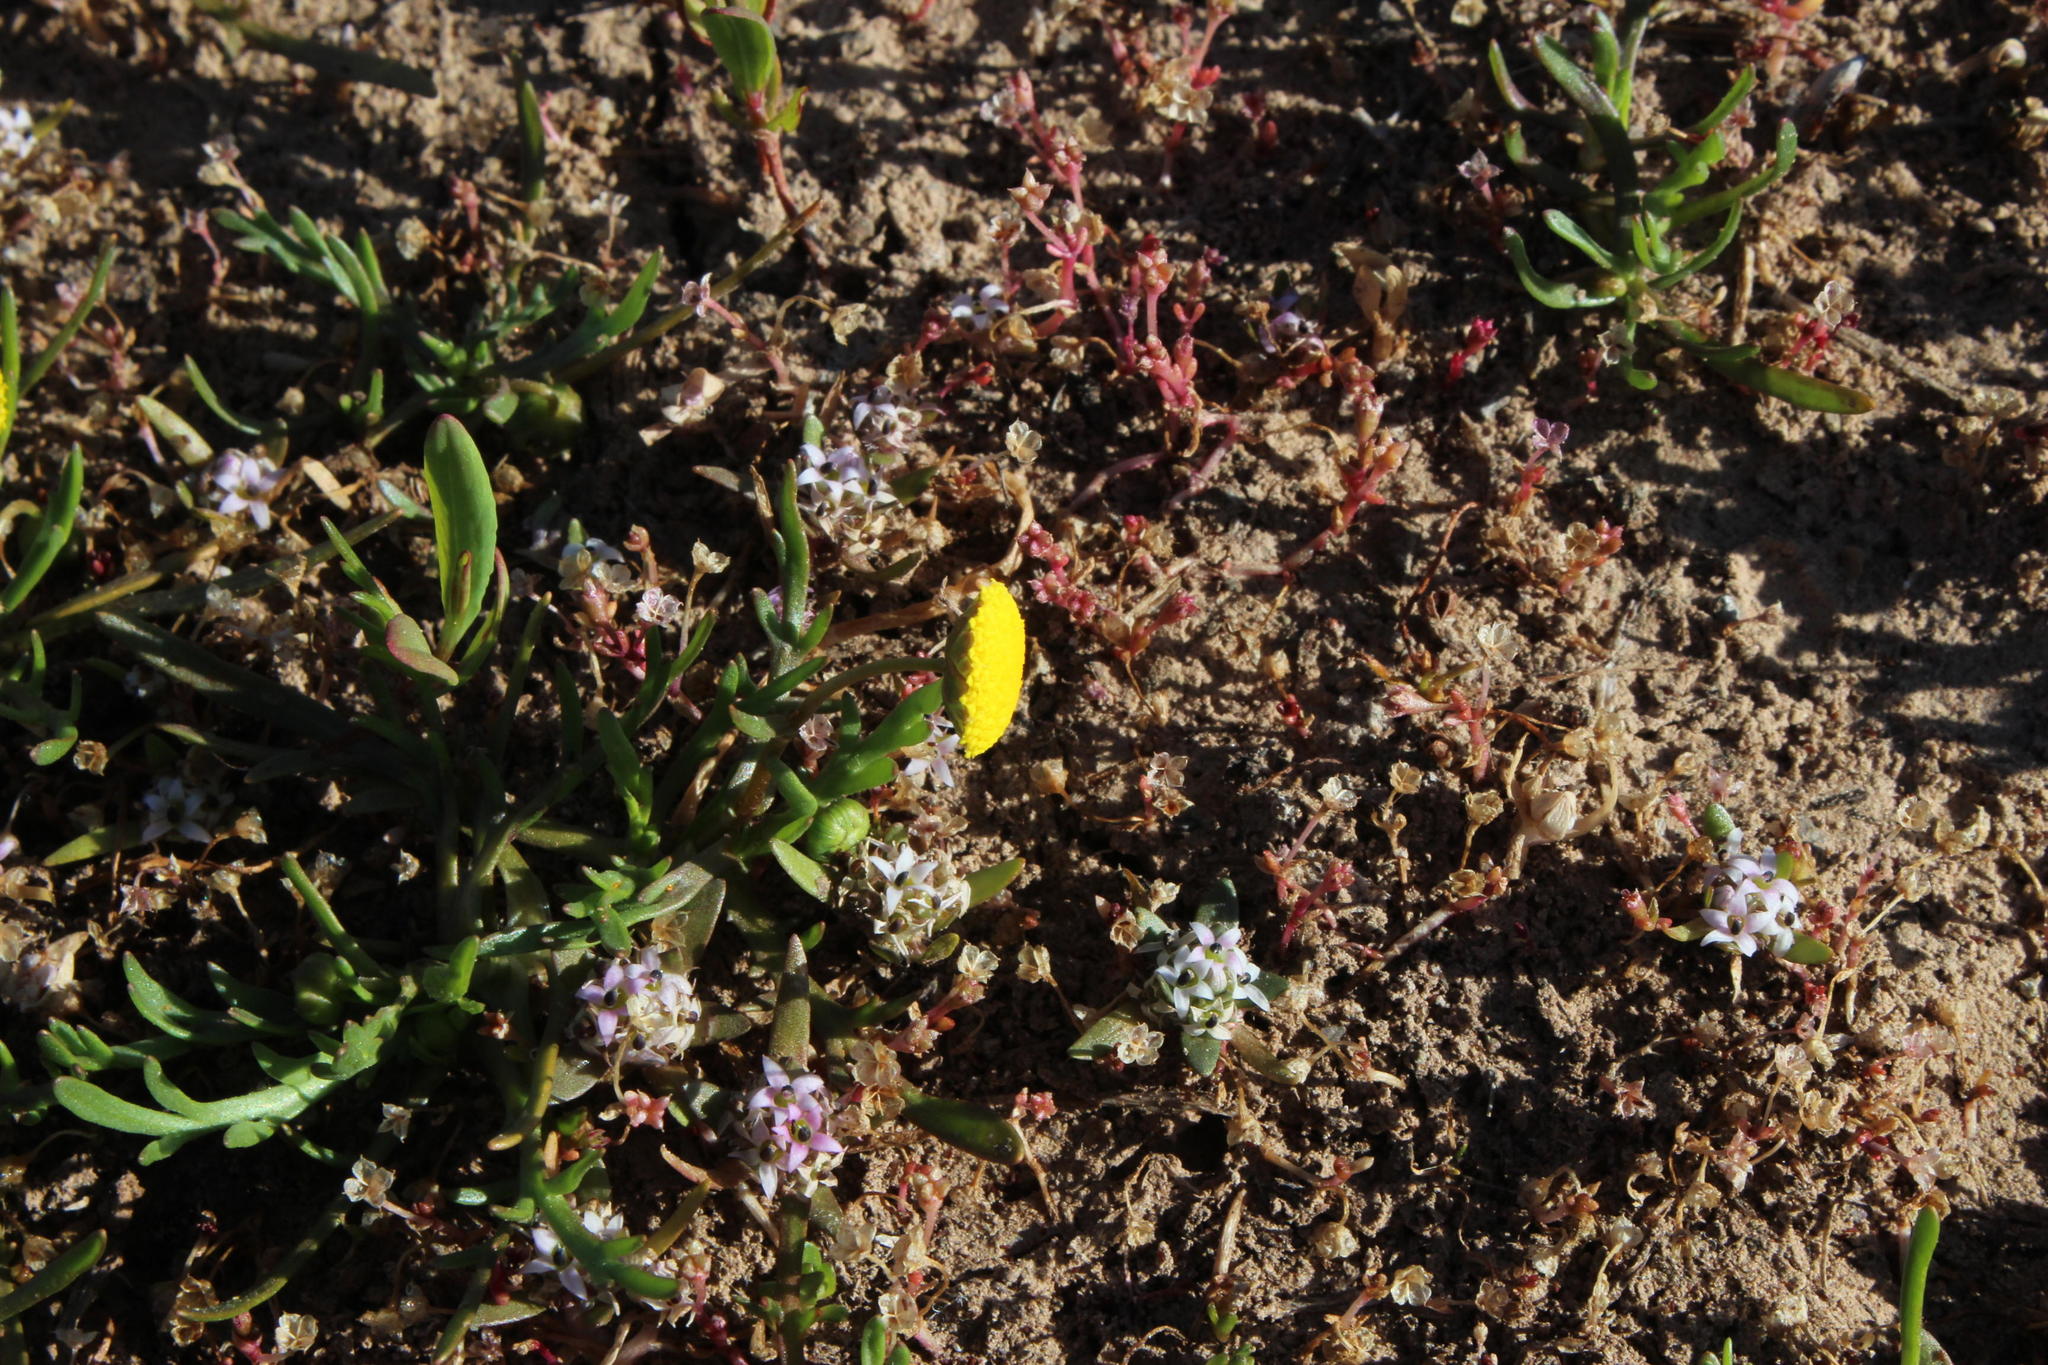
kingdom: Plantae
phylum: Tracheophyta
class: Magnoliopsida
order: Asterales
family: Asteraceae
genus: Cotula
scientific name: Cotula coronopifolia
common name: Buttonweed
